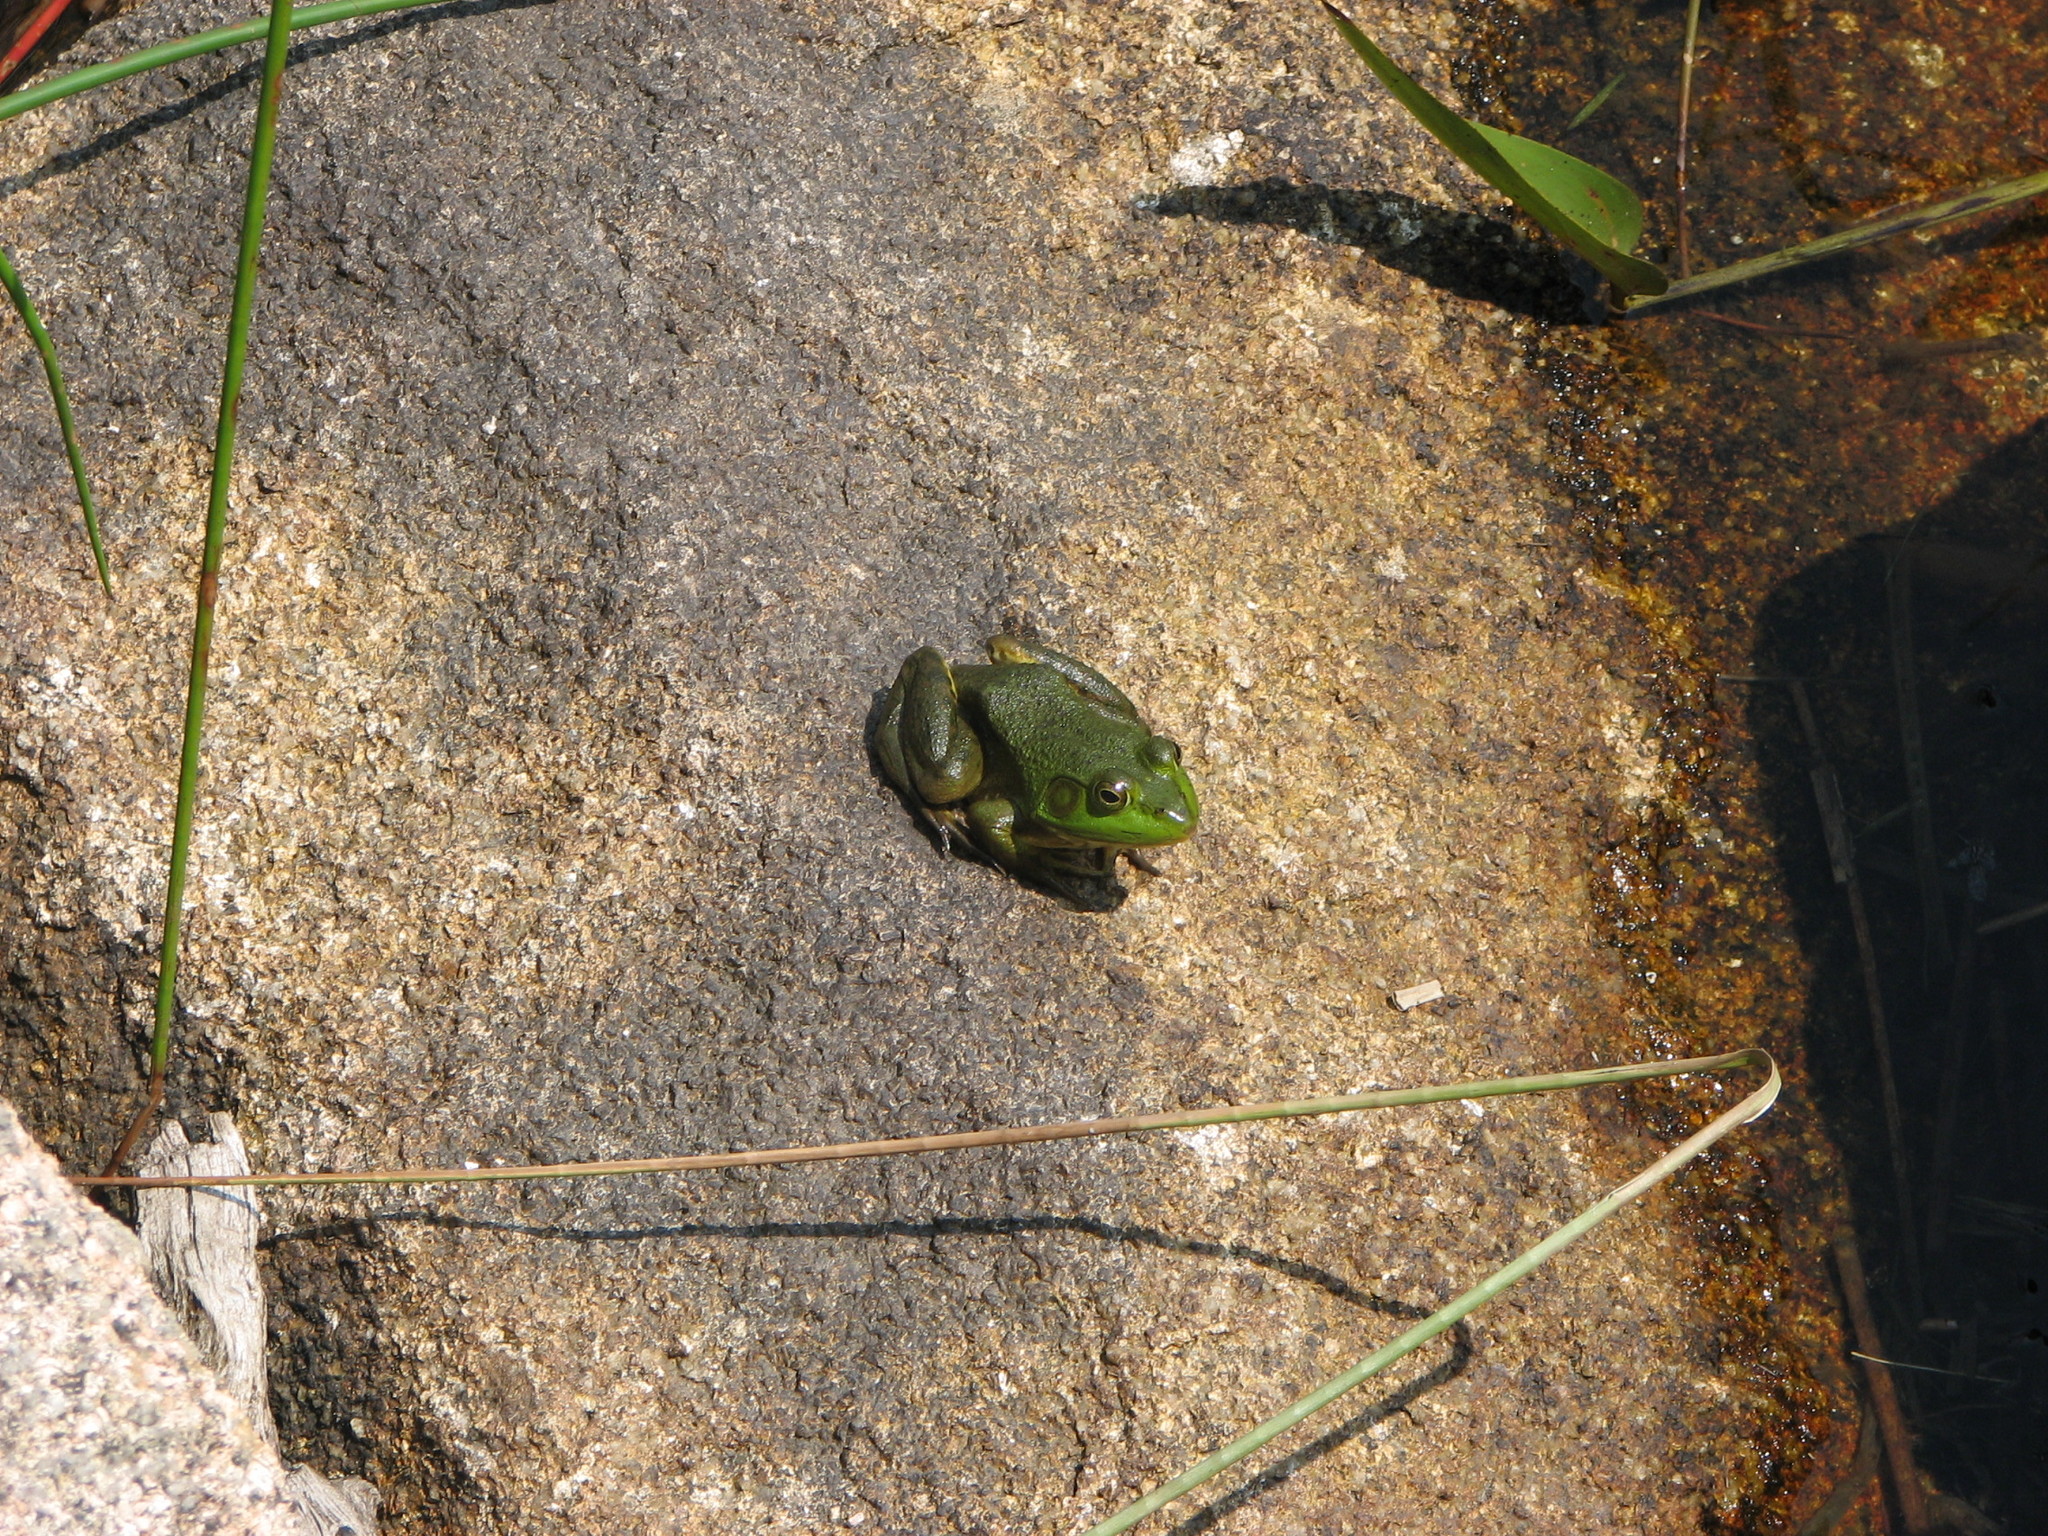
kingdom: Animalia
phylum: Chordata
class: Amphibia
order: Anura
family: Ranidae
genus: Lithobates
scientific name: Lithobates catesbeianus
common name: American bullfrog
